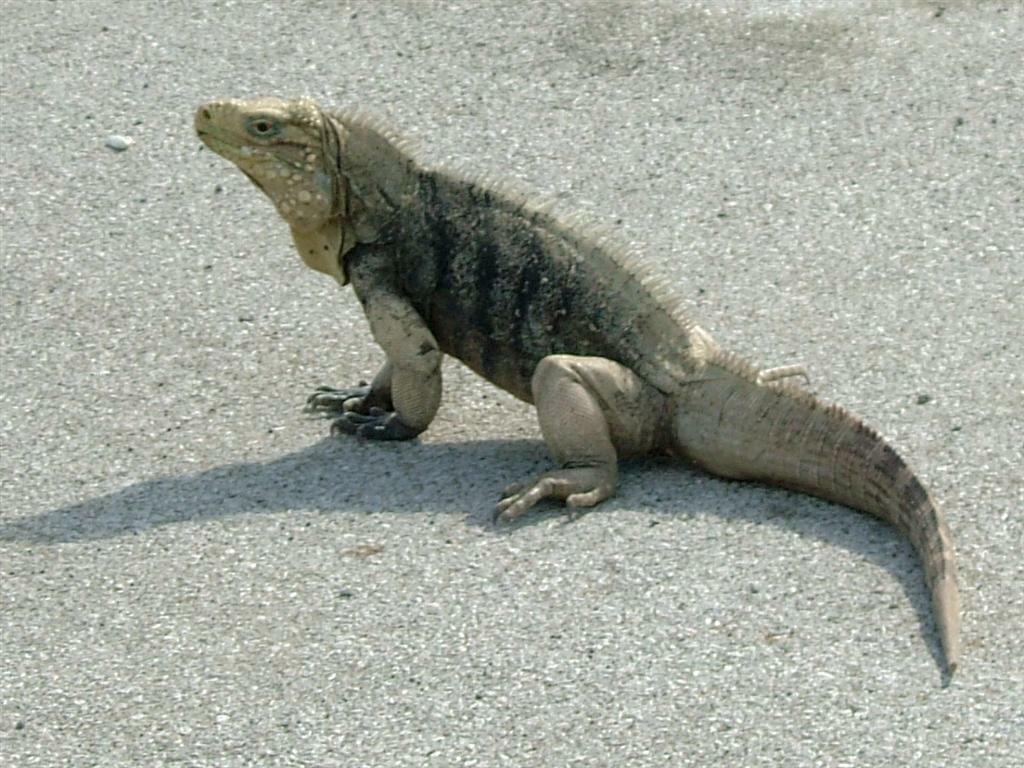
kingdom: Animalia
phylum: Chordata
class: Squamata
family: Iguanidae
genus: Cyclura
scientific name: Cyclura nubila
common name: Cayman islands ground iguana
